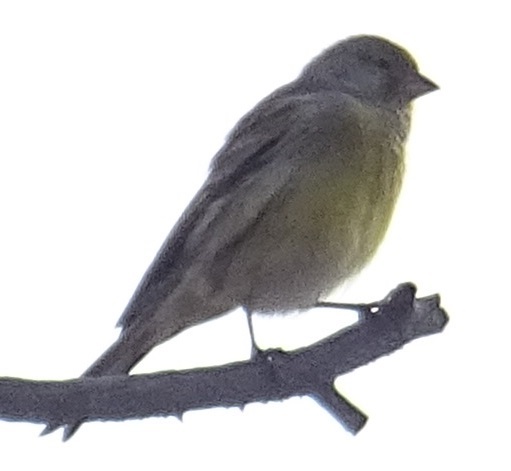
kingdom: Animalia
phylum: Chordata
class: Aves
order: Passeriformes
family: Fringillidae
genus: Serinus
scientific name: Serinus canaria
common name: Atlantic canary
